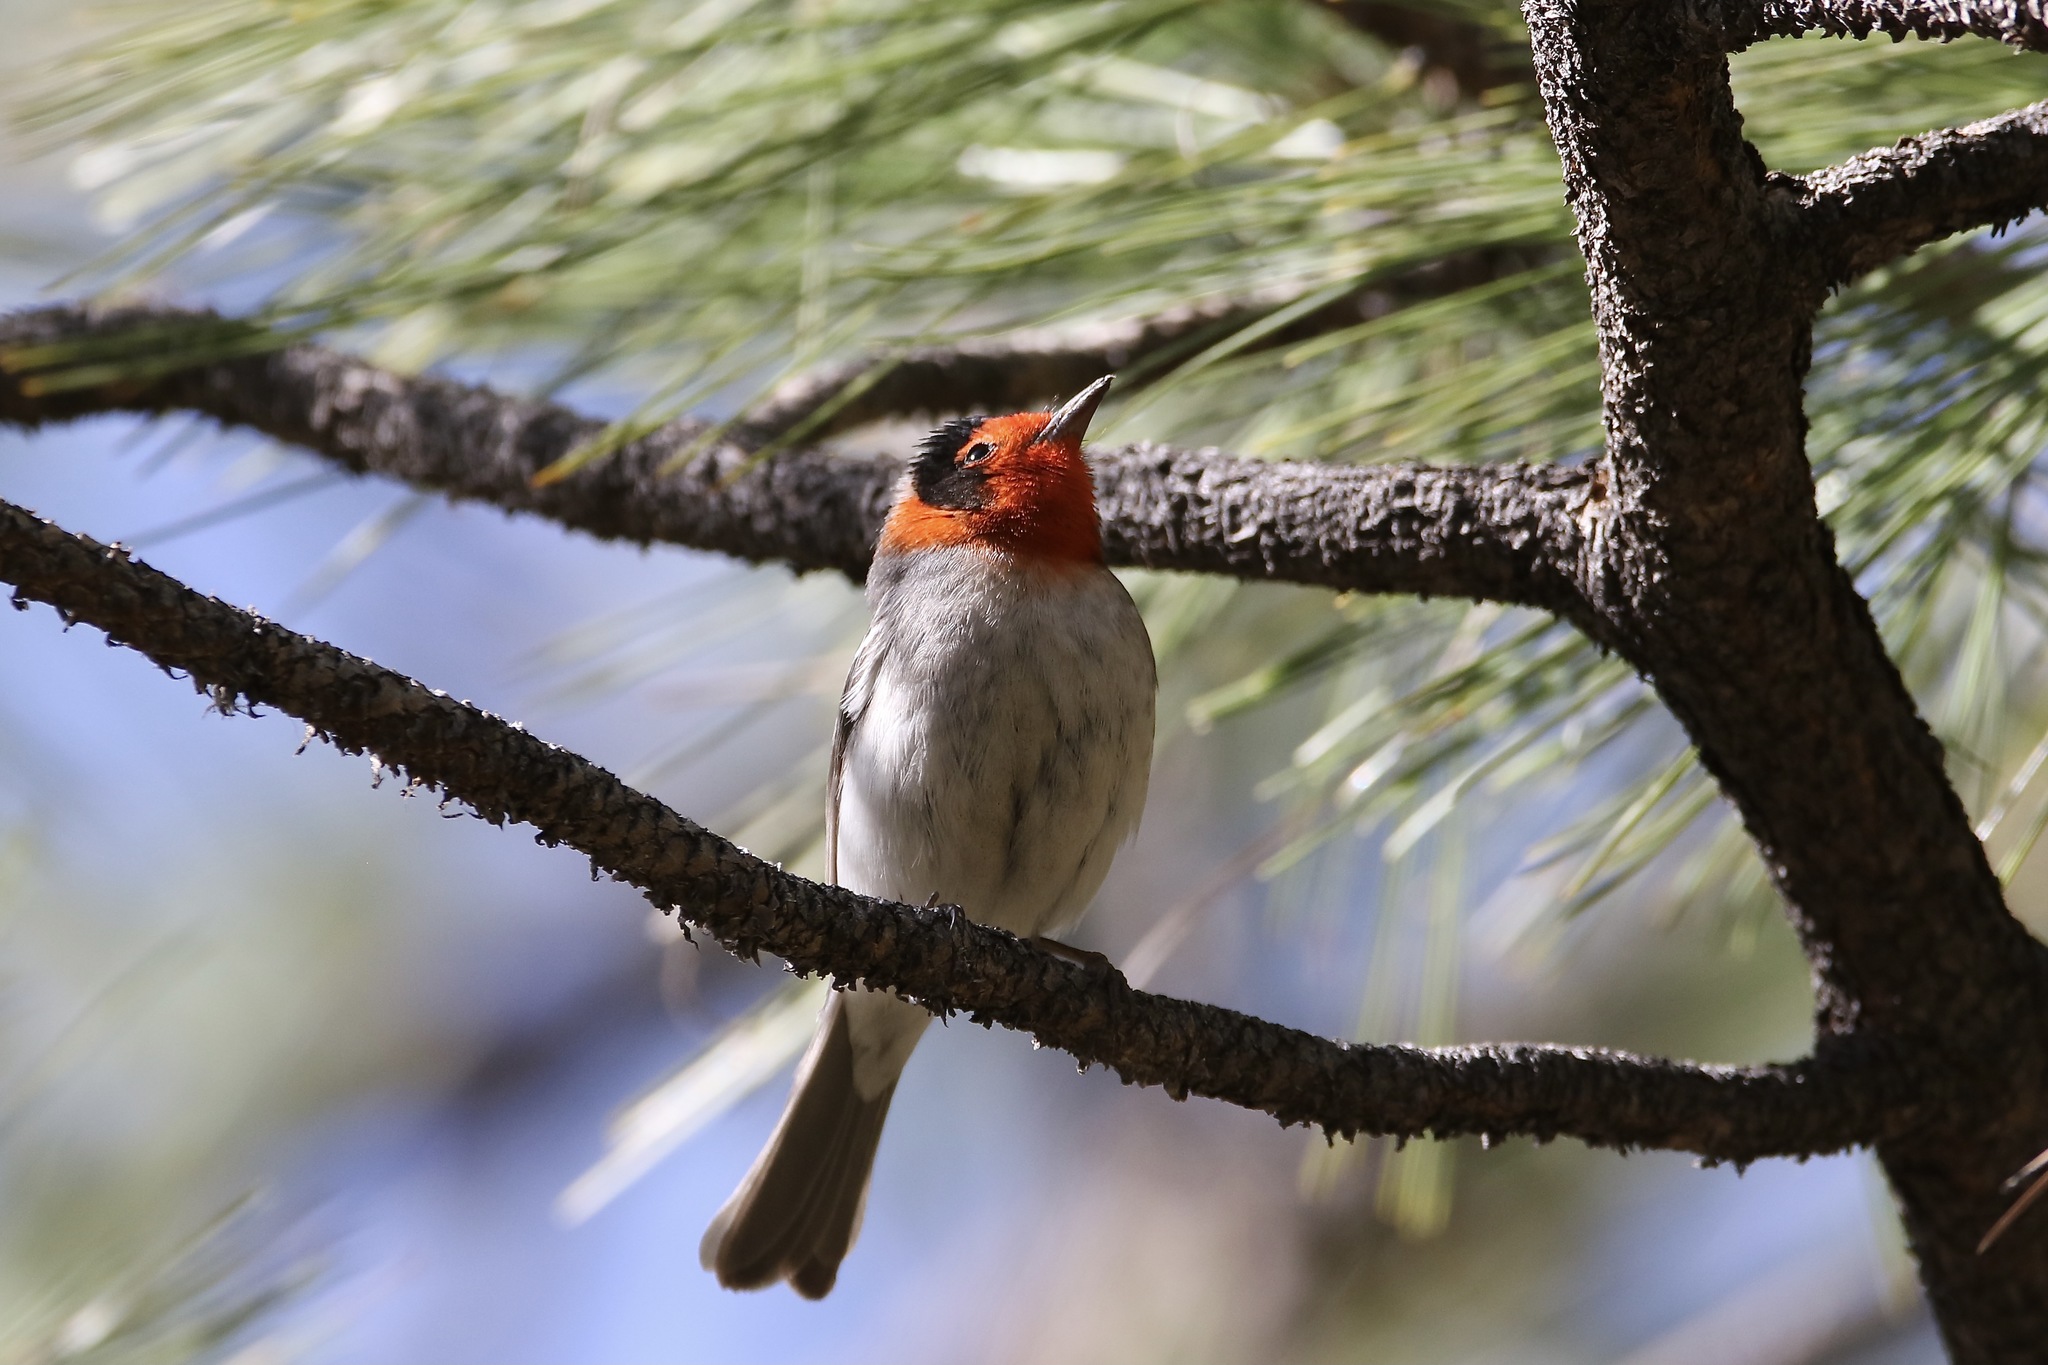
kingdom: Animalia
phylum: Chordata
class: Aves
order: Passeriformes
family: Parulidae
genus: Cardellina
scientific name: Cardellina rubrifrons
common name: Red-faced warbler
